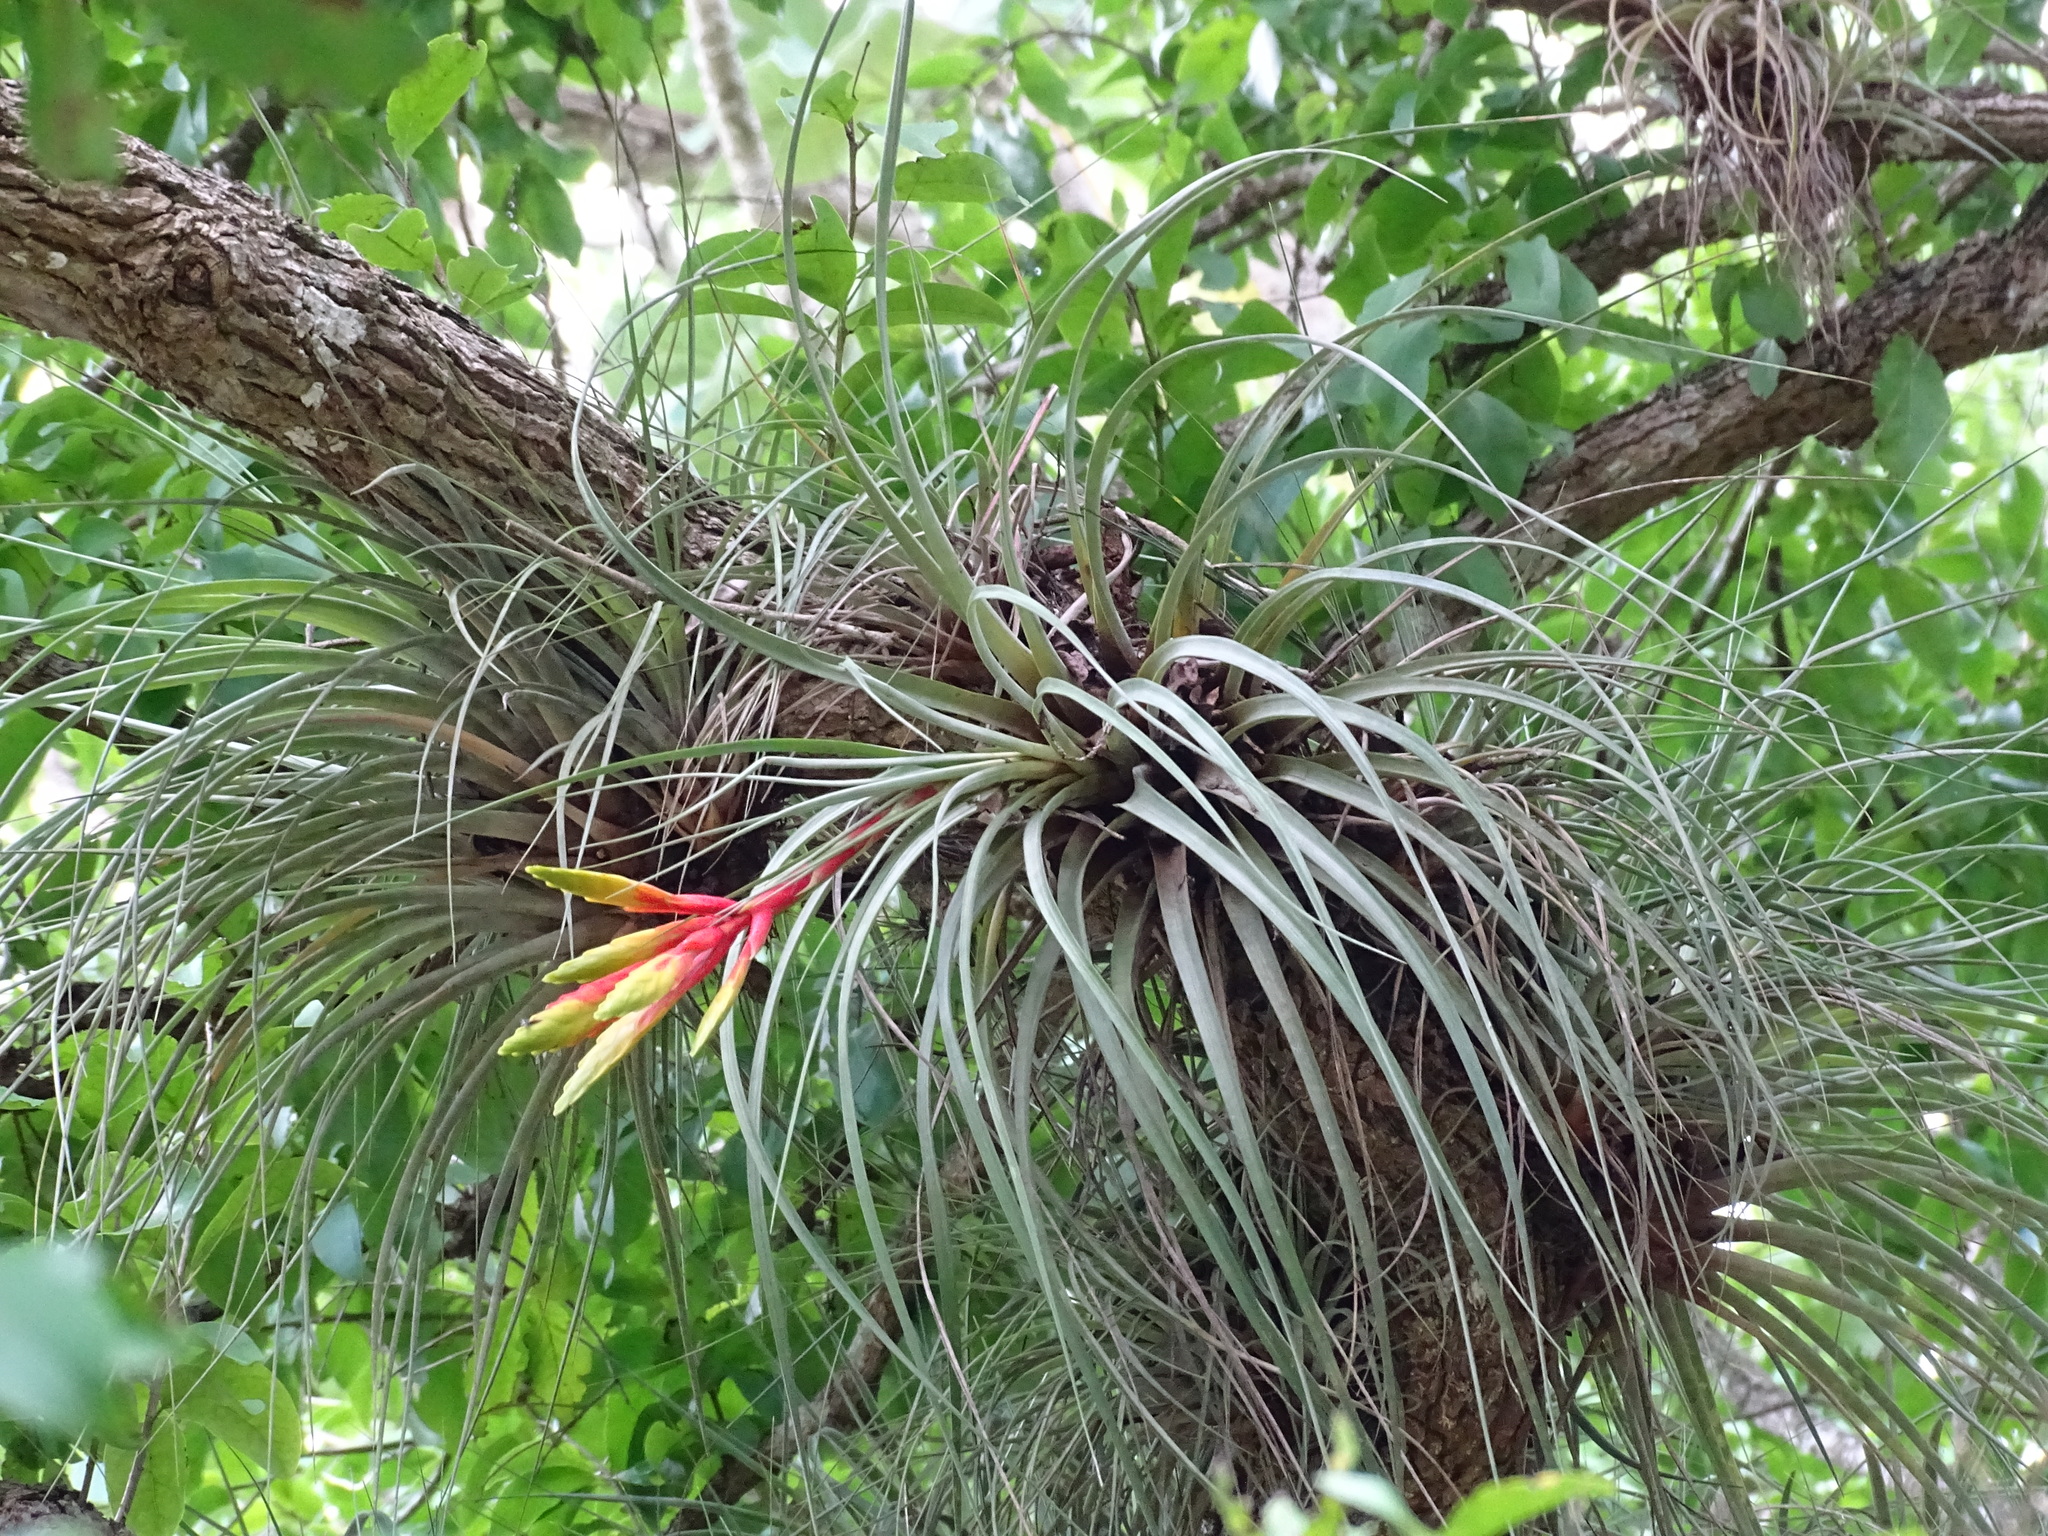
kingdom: Plantae
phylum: Tracheophyta
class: Liliopsida
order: Poales
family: Bromeliaceae
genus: Tillandsia
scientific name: Tillandsia fasciculata
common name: Giant airplant
